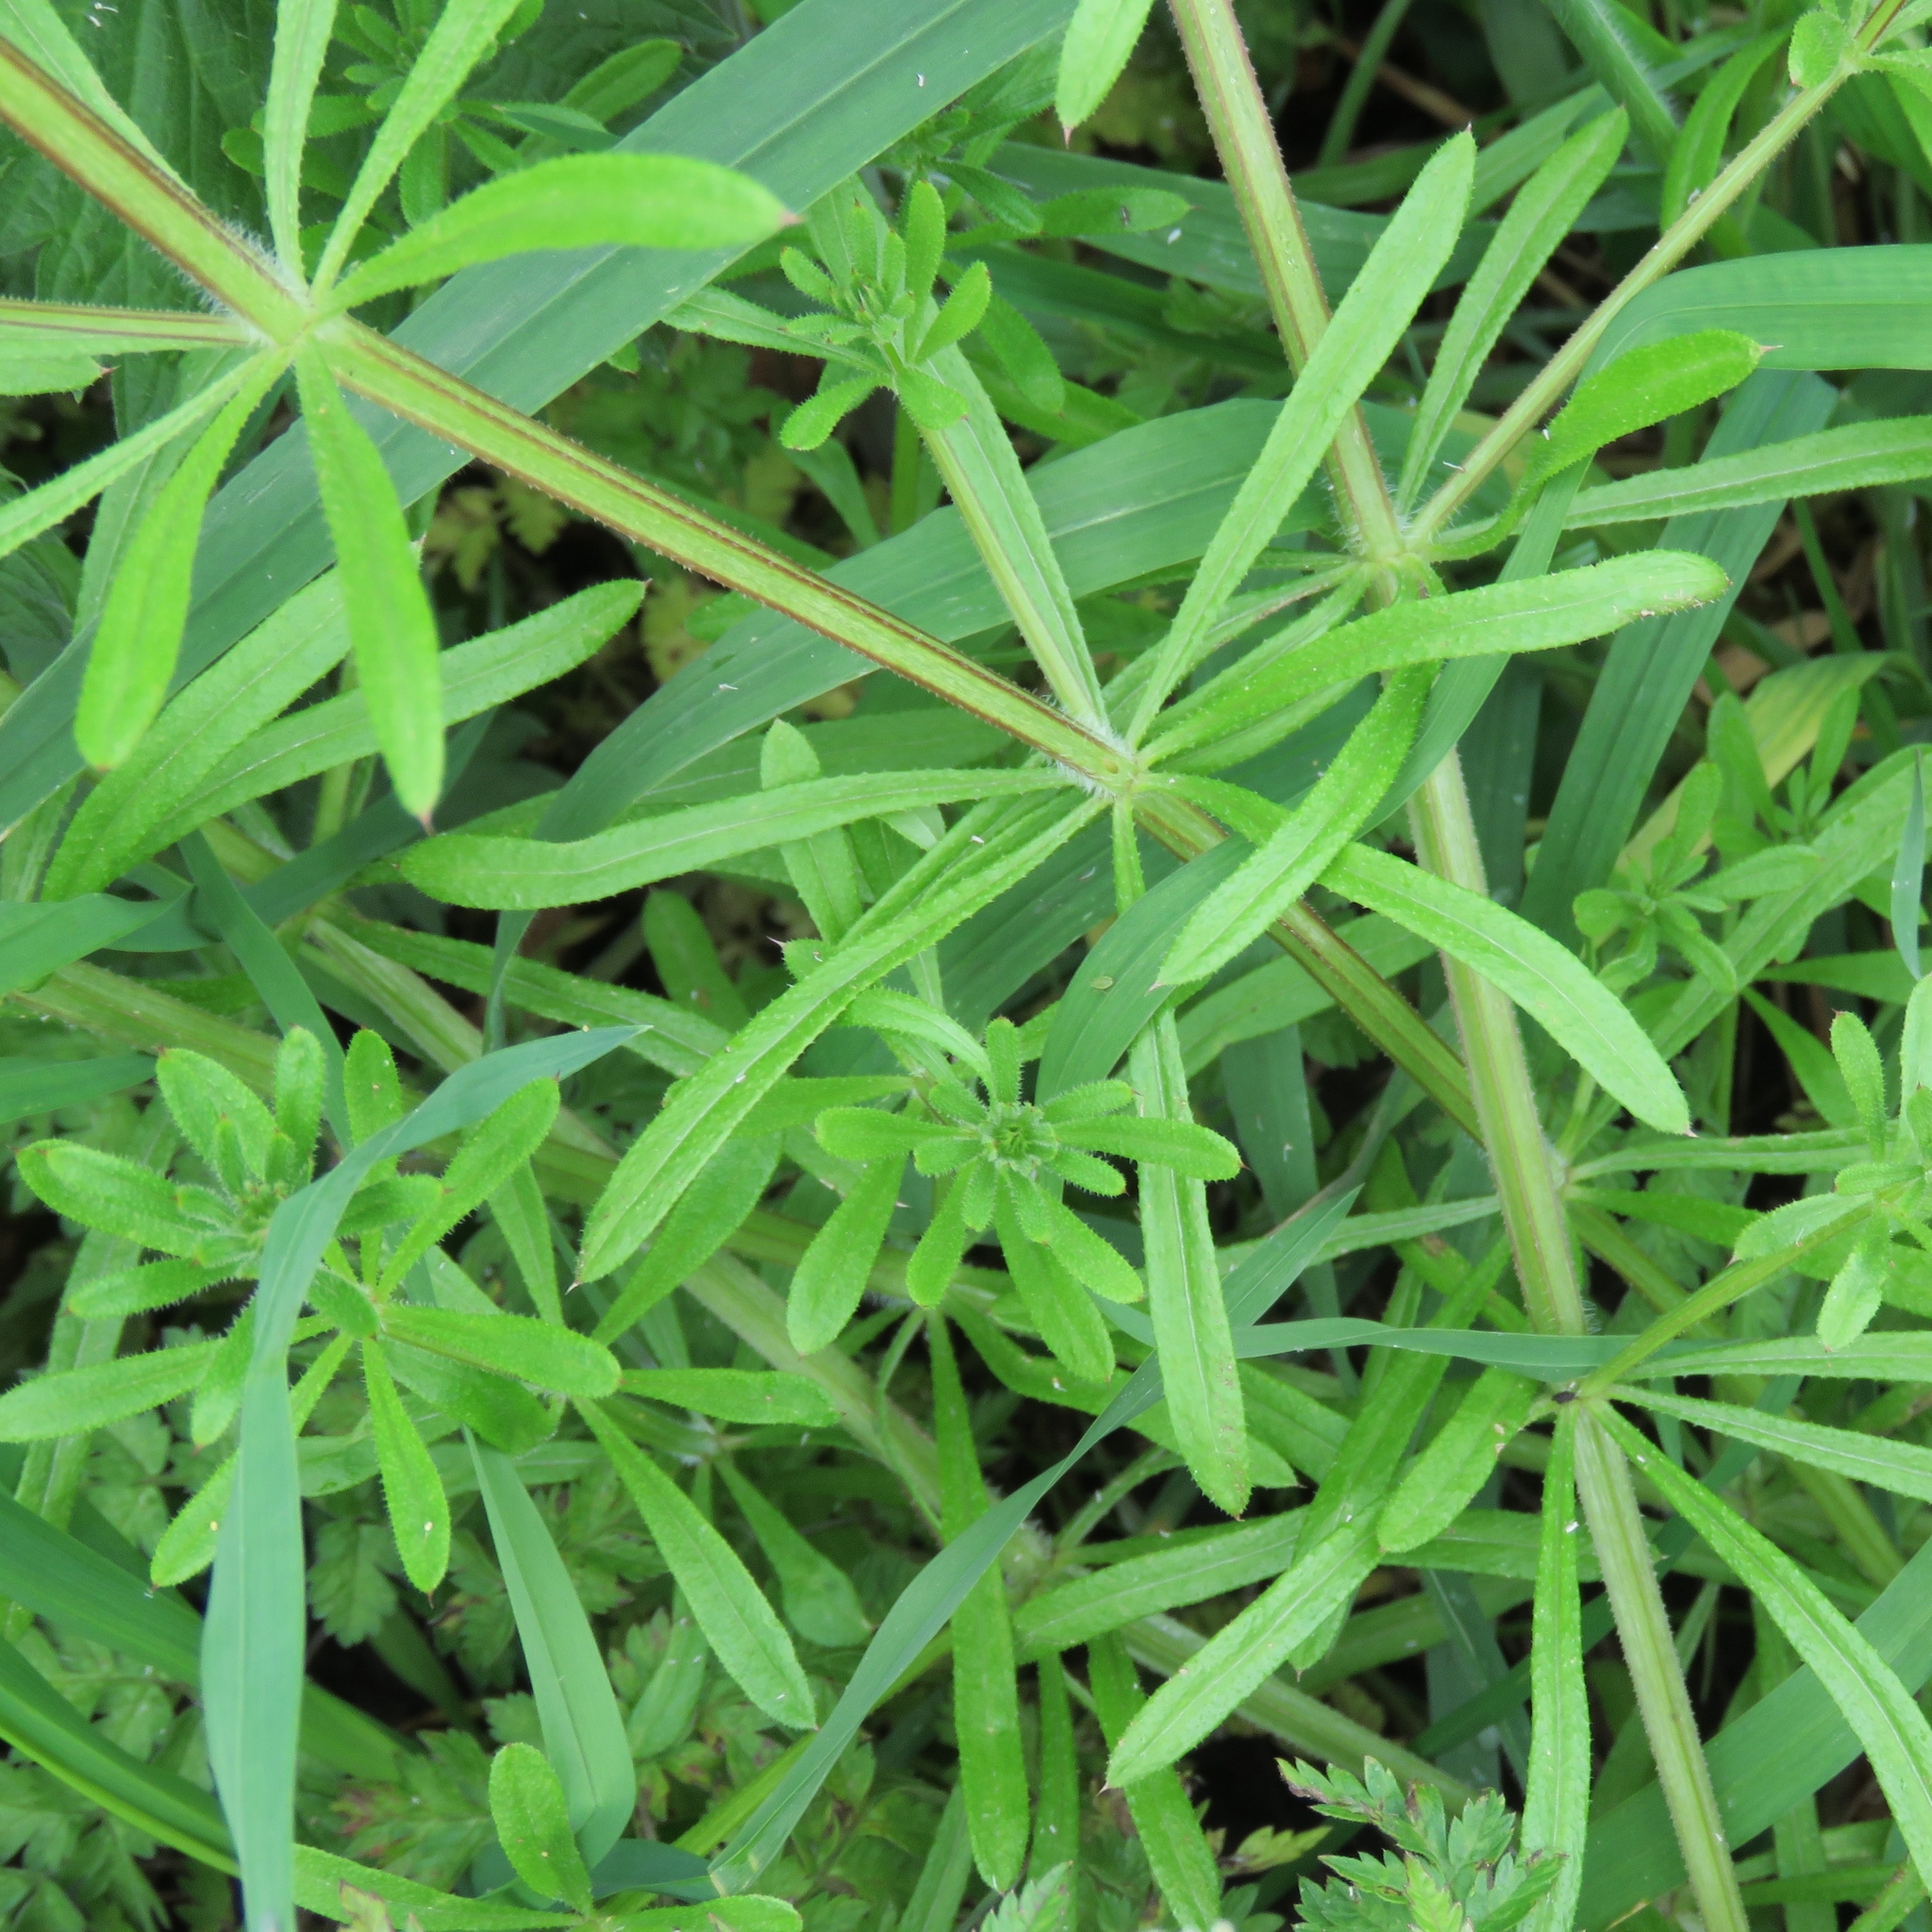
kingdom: Plantae
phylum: Tracheophyta
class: Magnoliopsida
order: Gentianales
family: Rubiaceae
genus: Galium
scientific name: Galium aparine
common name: Cleavers
